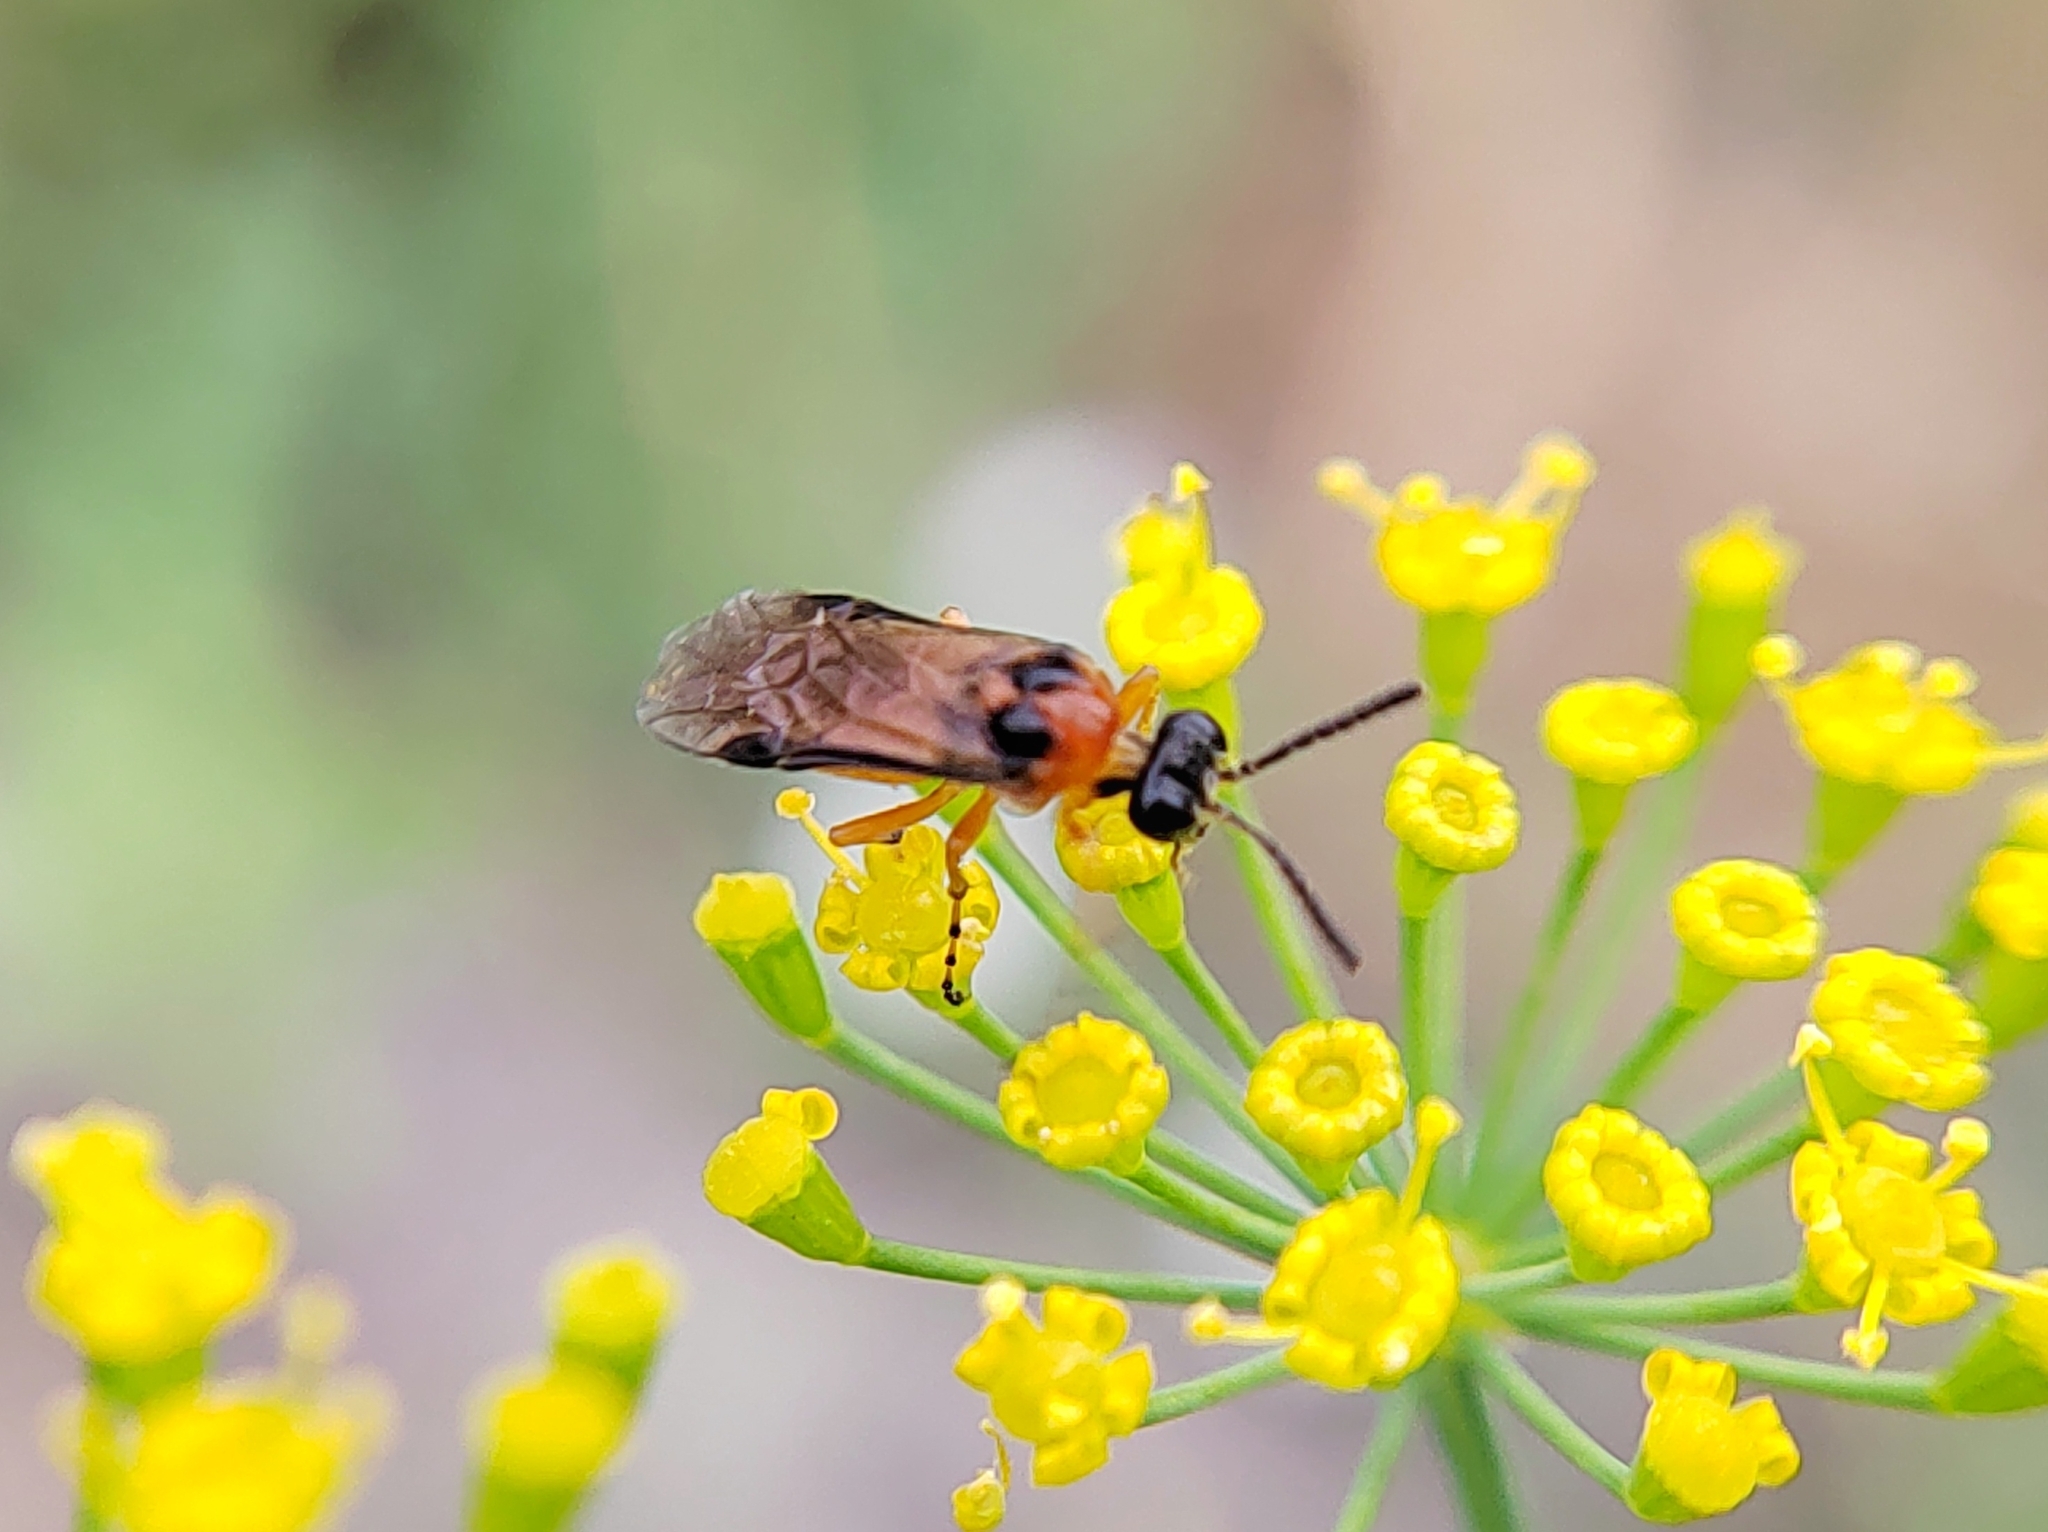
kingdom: Animalia
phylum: Arthropoda
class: Insecta
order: Hymenoptera
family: Tenthredinidae
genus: Athalia
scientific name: Athalia rosae
